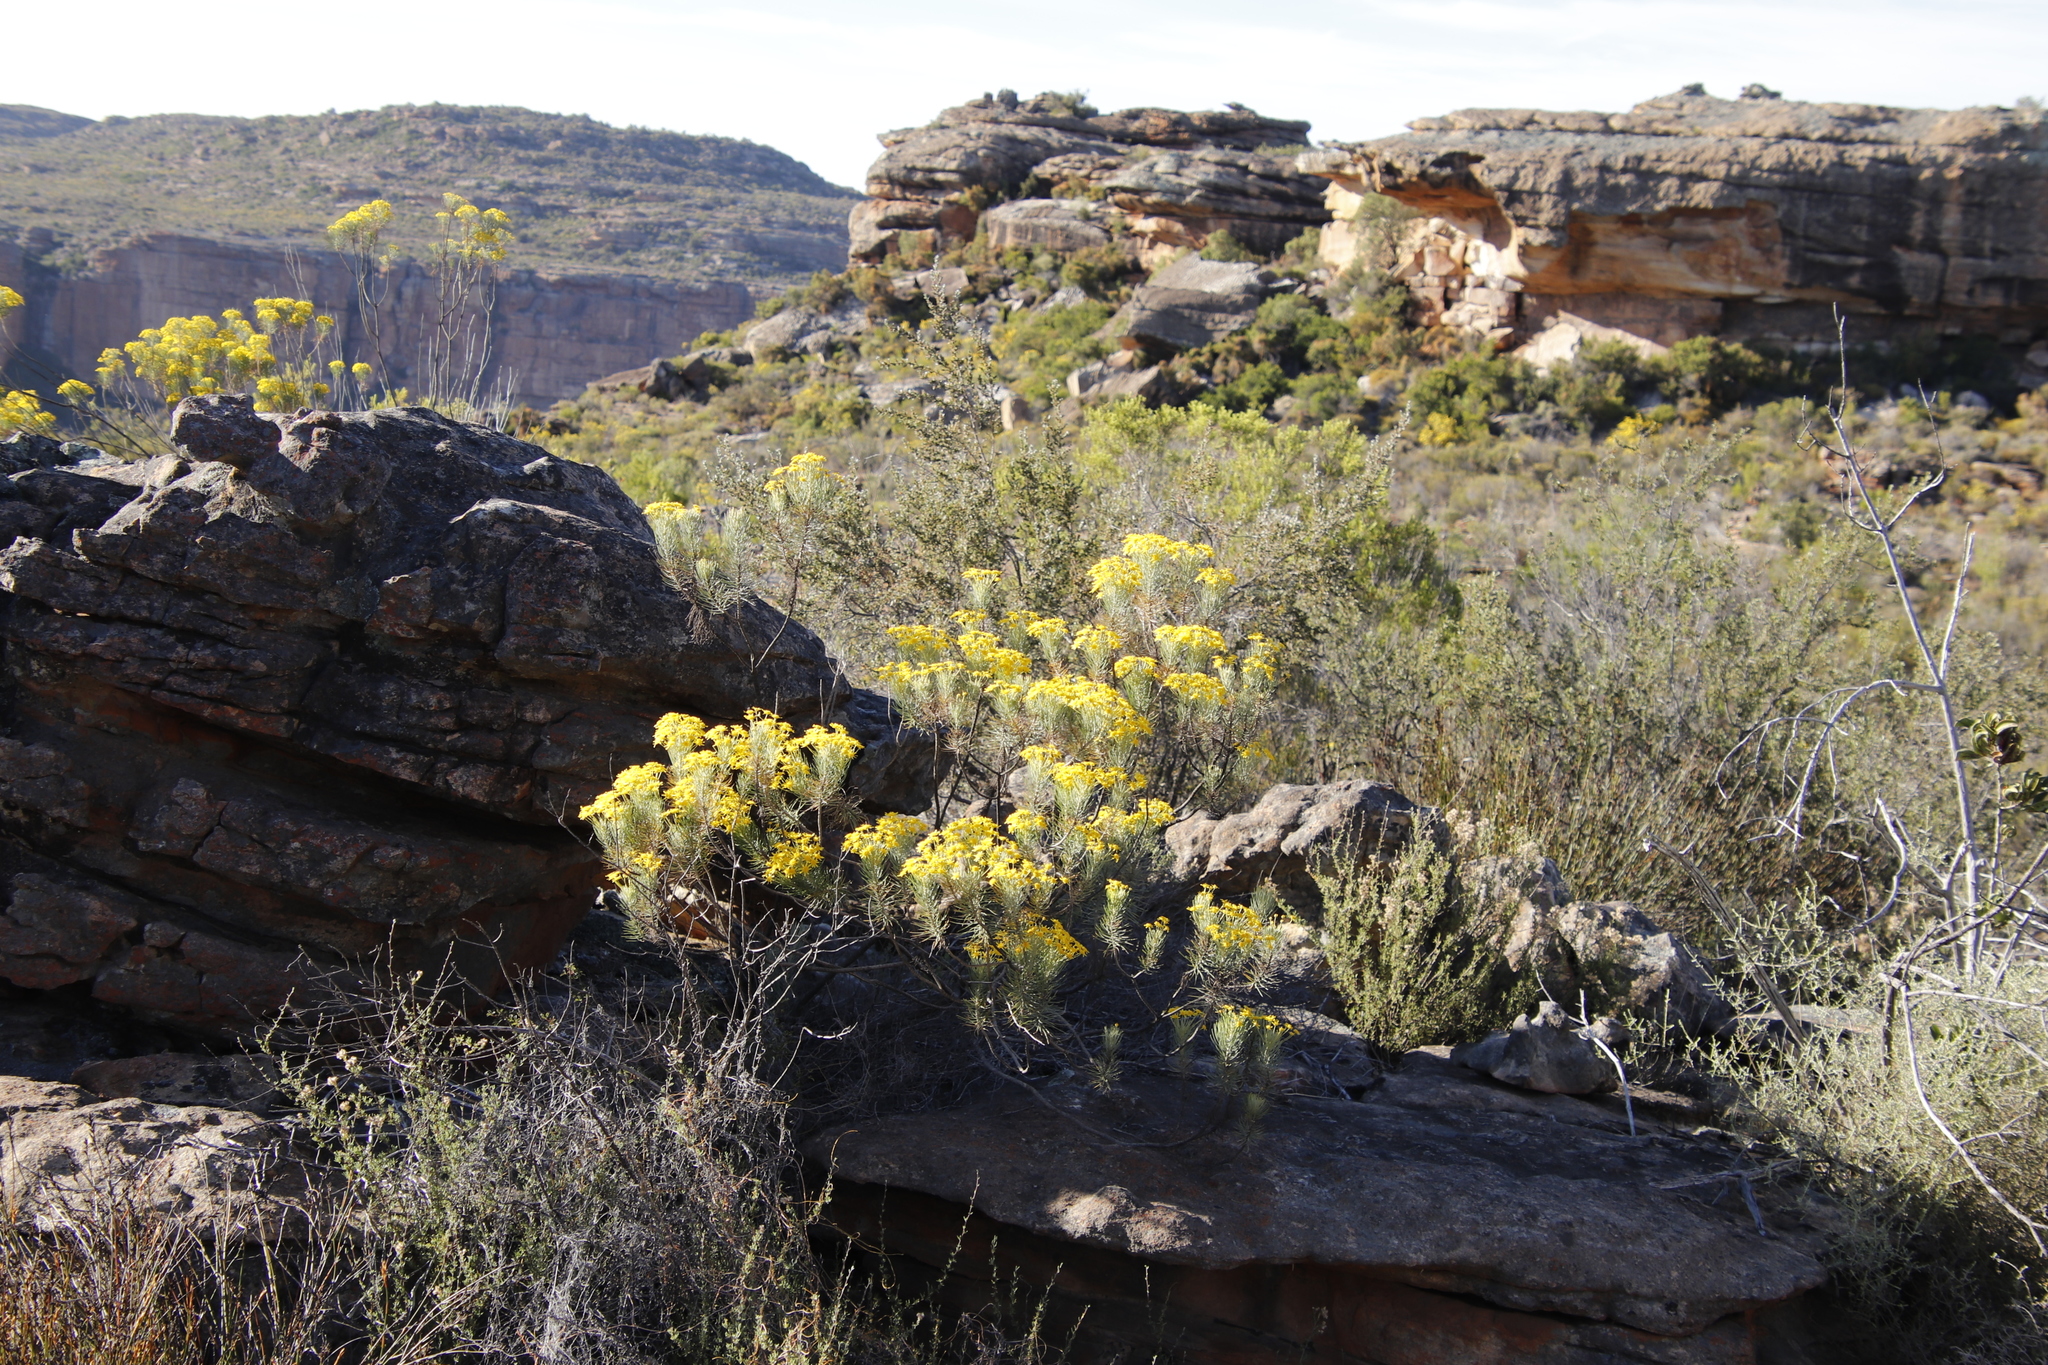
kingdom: Plantae
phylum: Tracheophyta
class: Magnoliopsida
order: Asterales
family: Asteraceae
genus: Euryops
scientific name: Euryops tenuissimus
